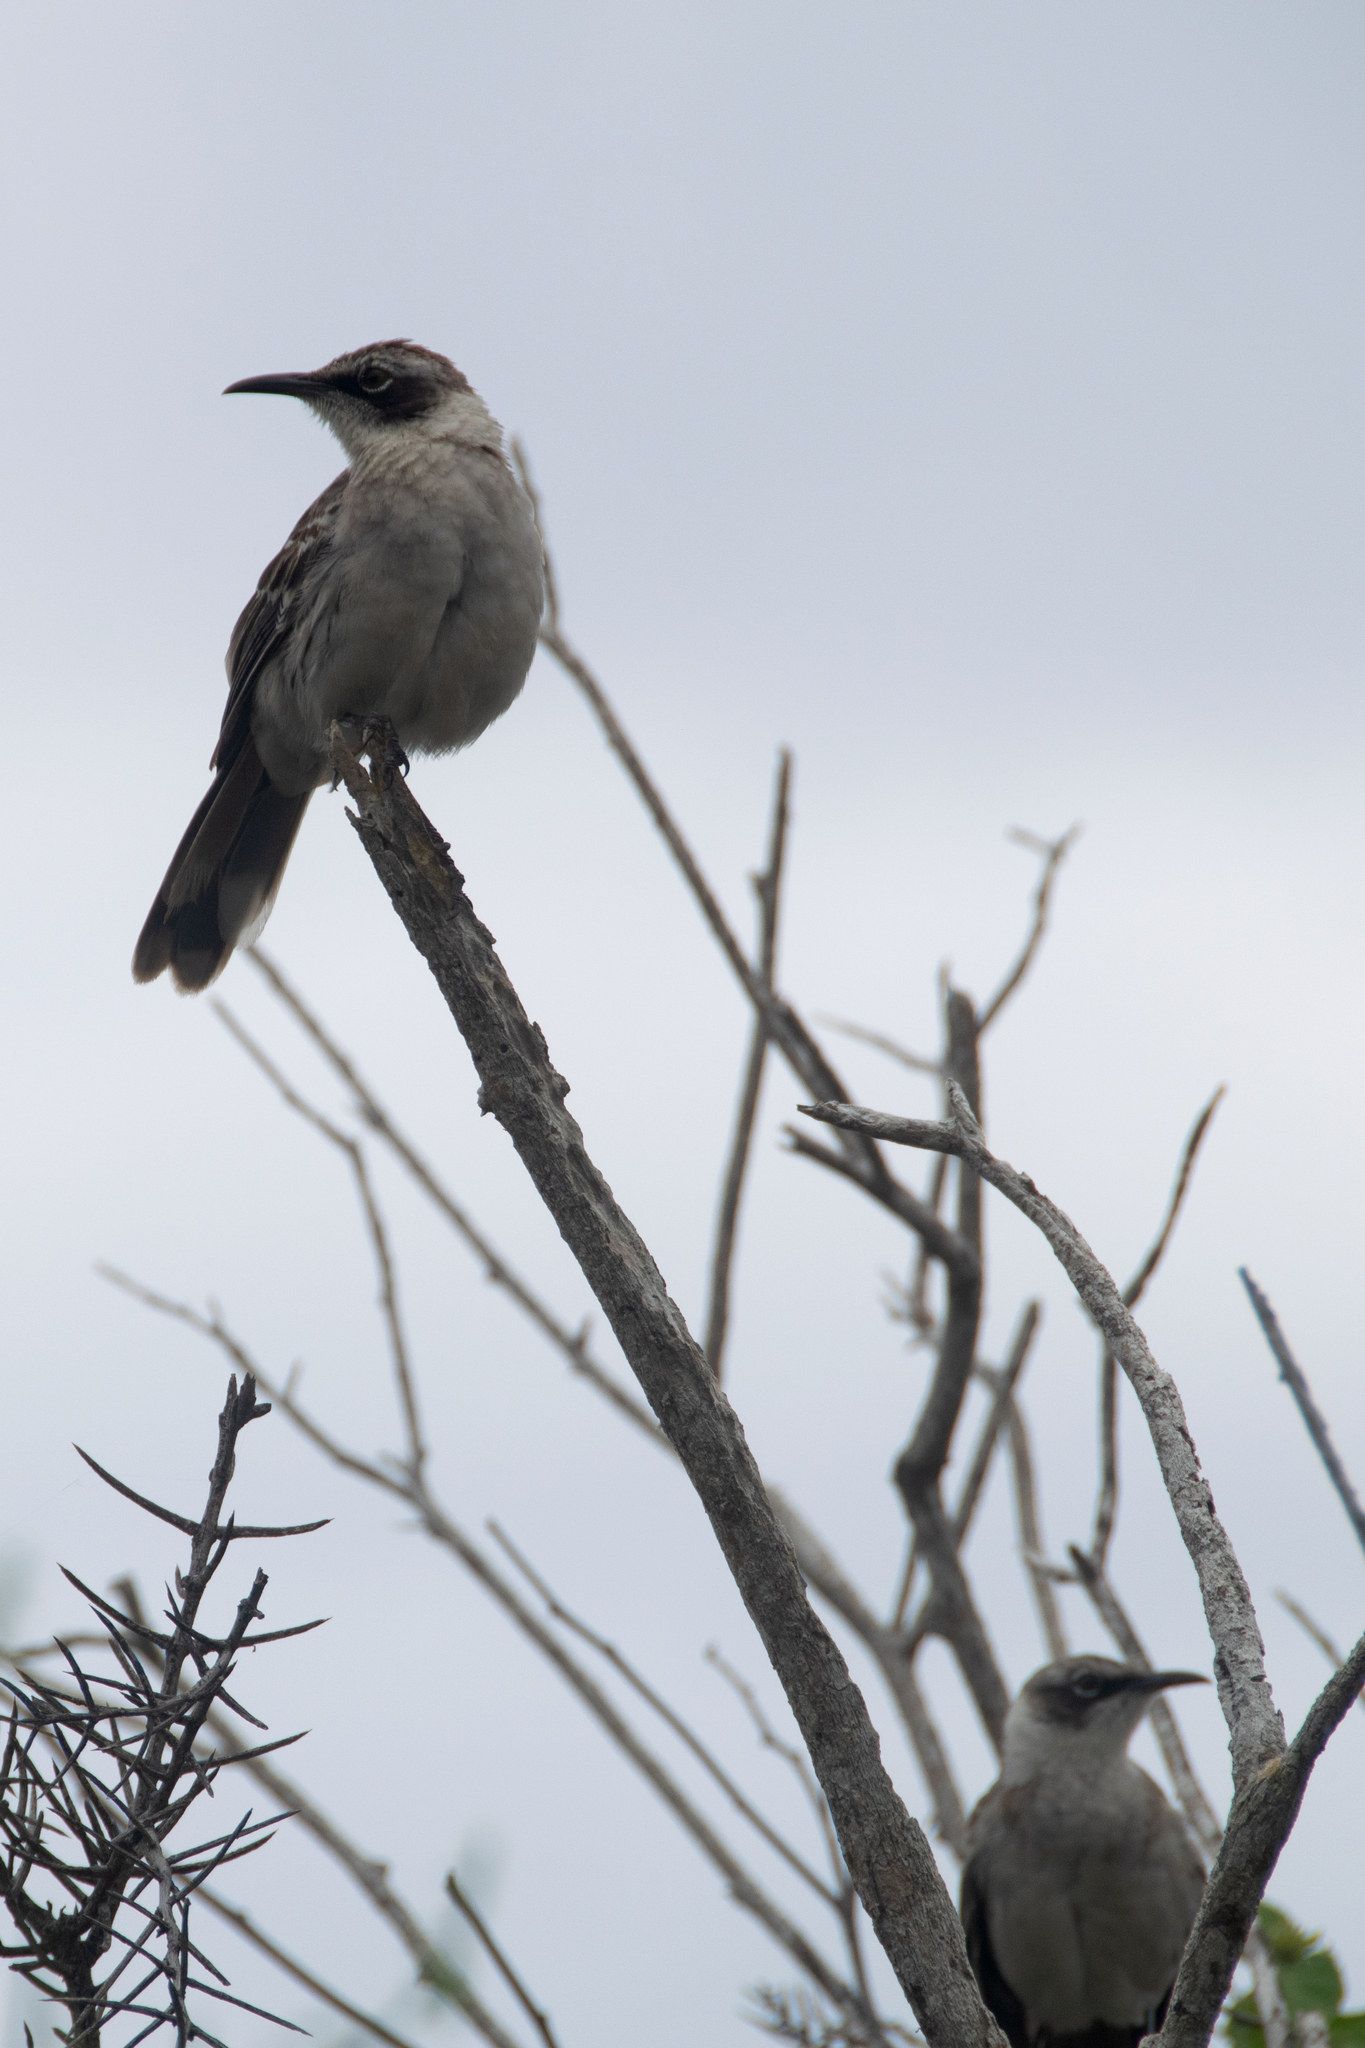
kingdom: Animalia
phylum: Chordata
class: Aves
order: Passeriformes
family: Mimidae
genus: Mimus
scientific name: Mimus parvulus
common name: Galapagos mockingbird
